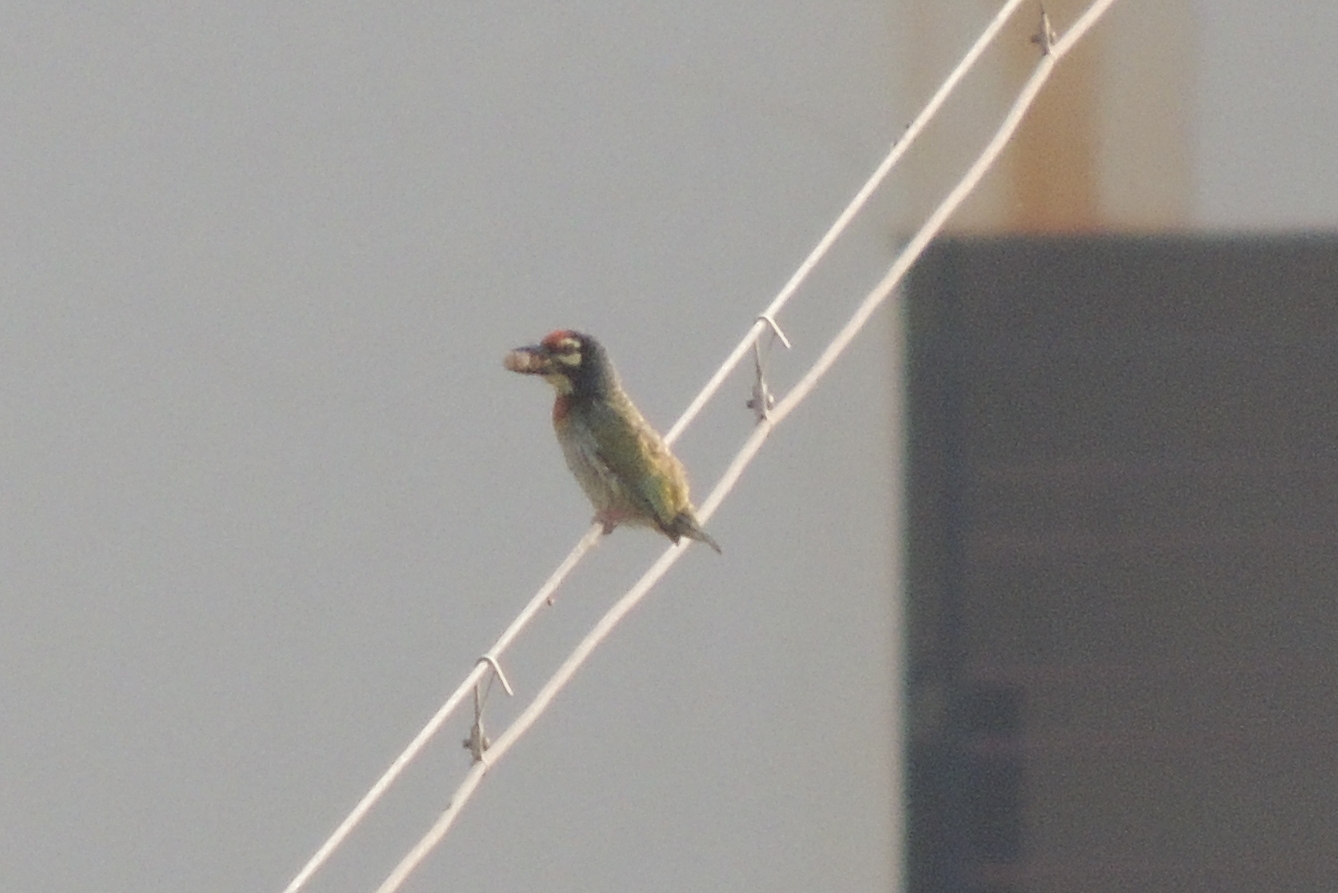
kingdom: Animalia
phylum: Chordata
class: Aves
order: Piciformes
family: Megalaimidae
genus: Psilopogon
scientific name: Psilopogon haemacephalus
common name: Coppersmith barbet
